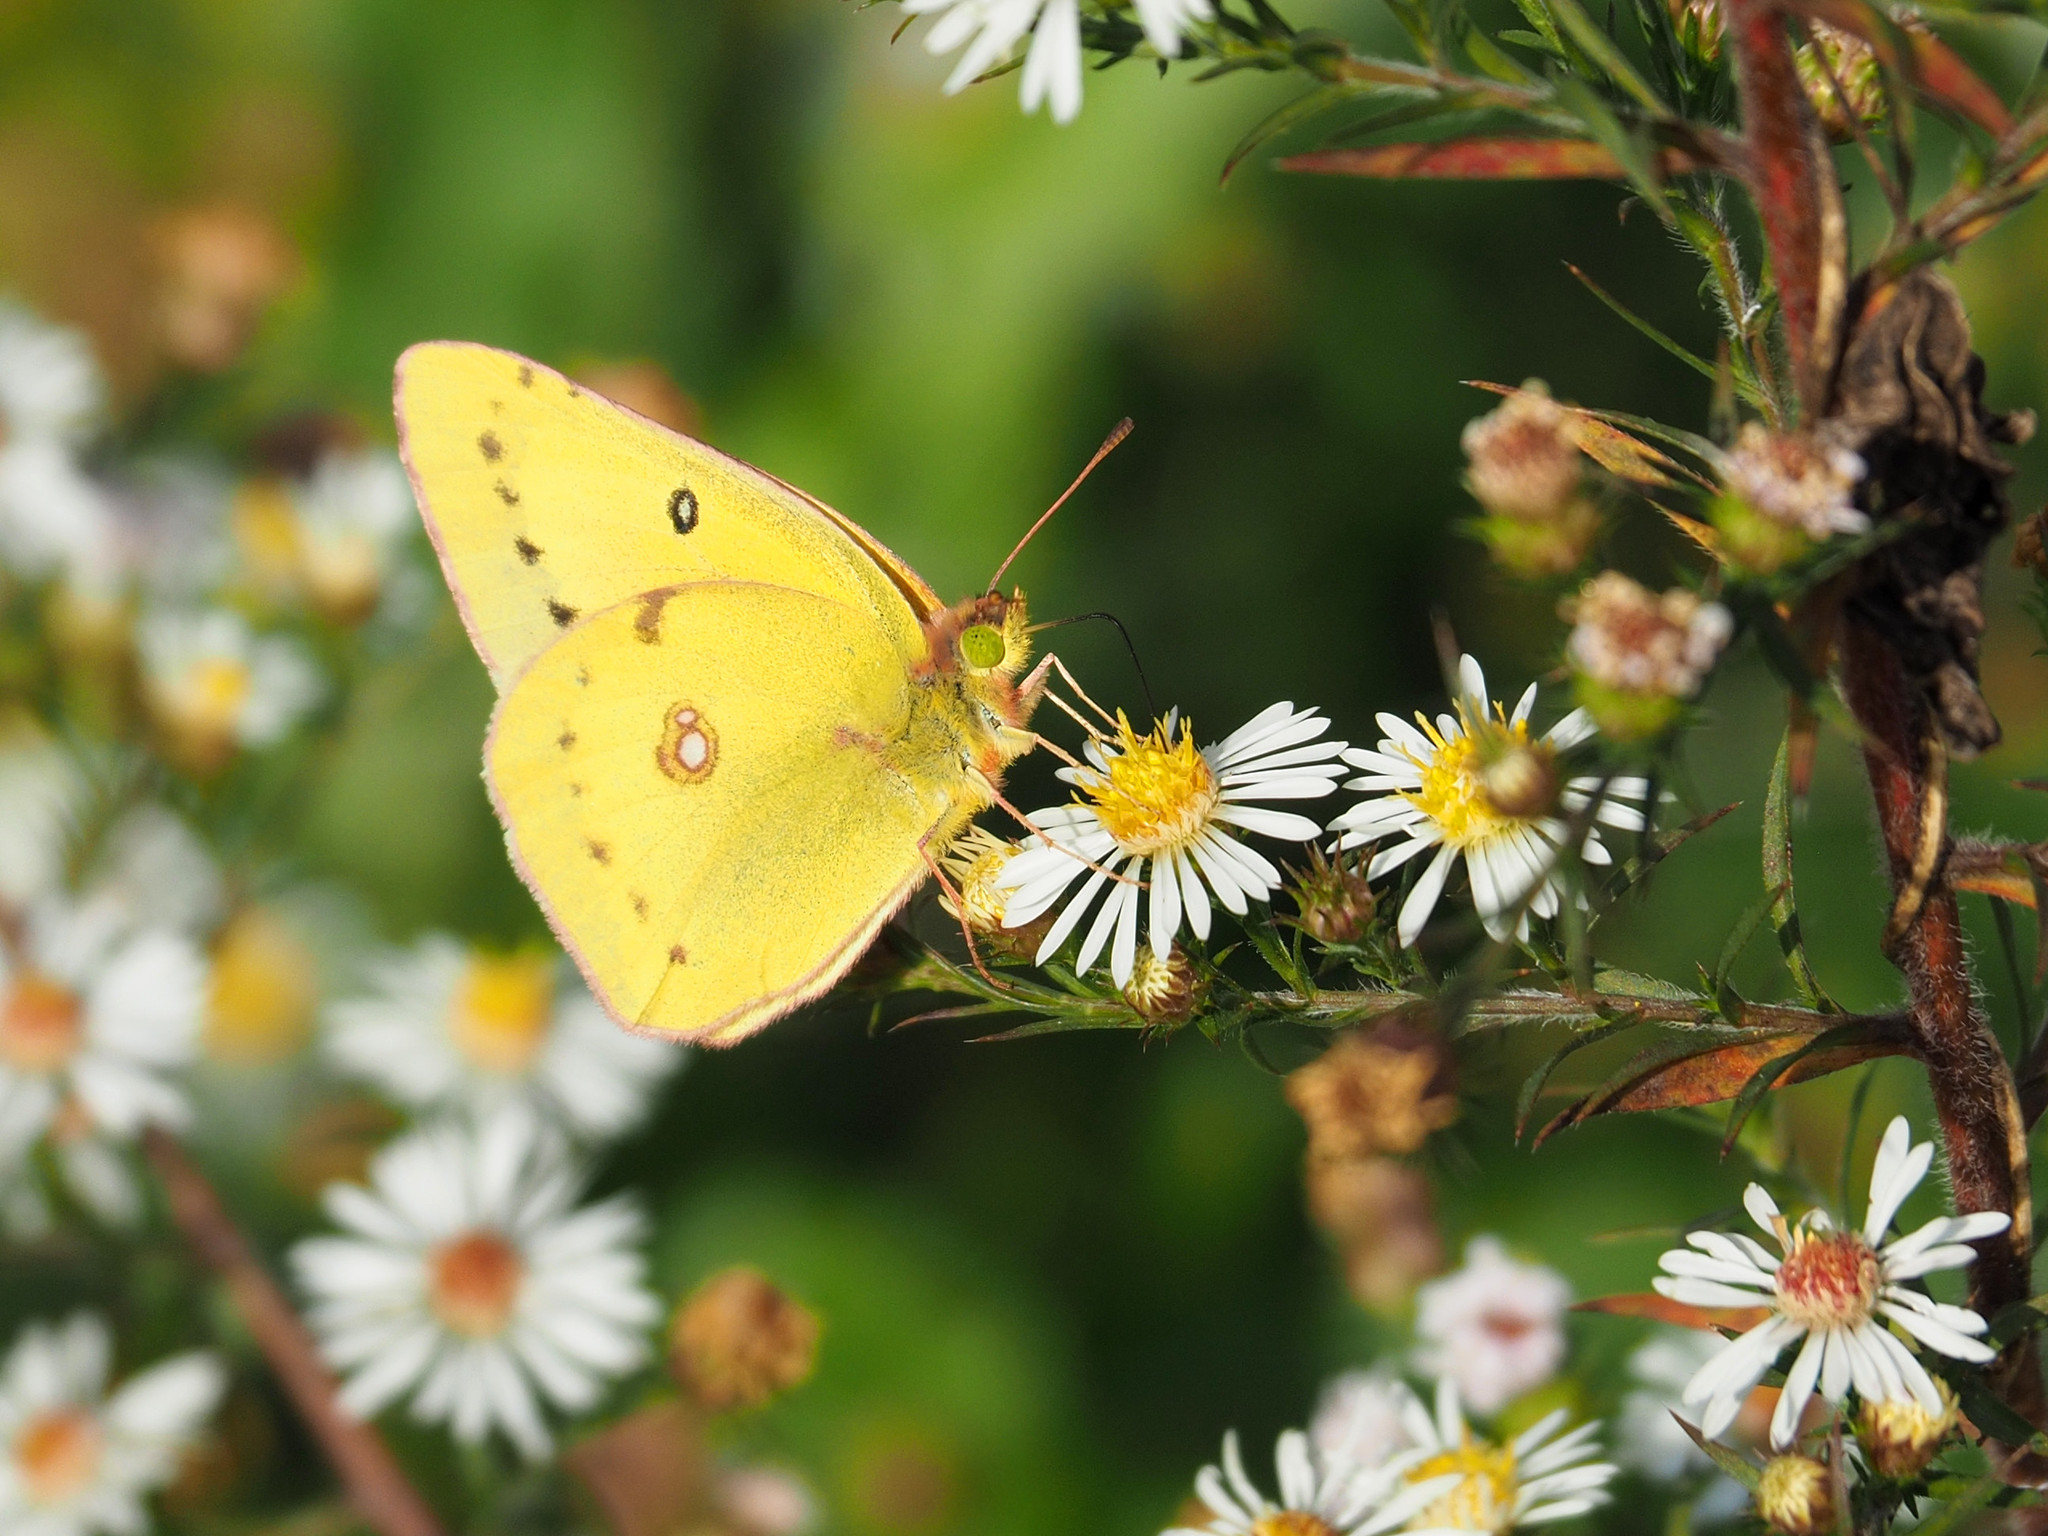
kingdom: Animalia
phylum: Arthropoda
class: Insecta
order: Lepidoptera
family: Pieridae
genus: Colias
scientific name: Colias eurytheme
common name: Alfalfa butterfly
